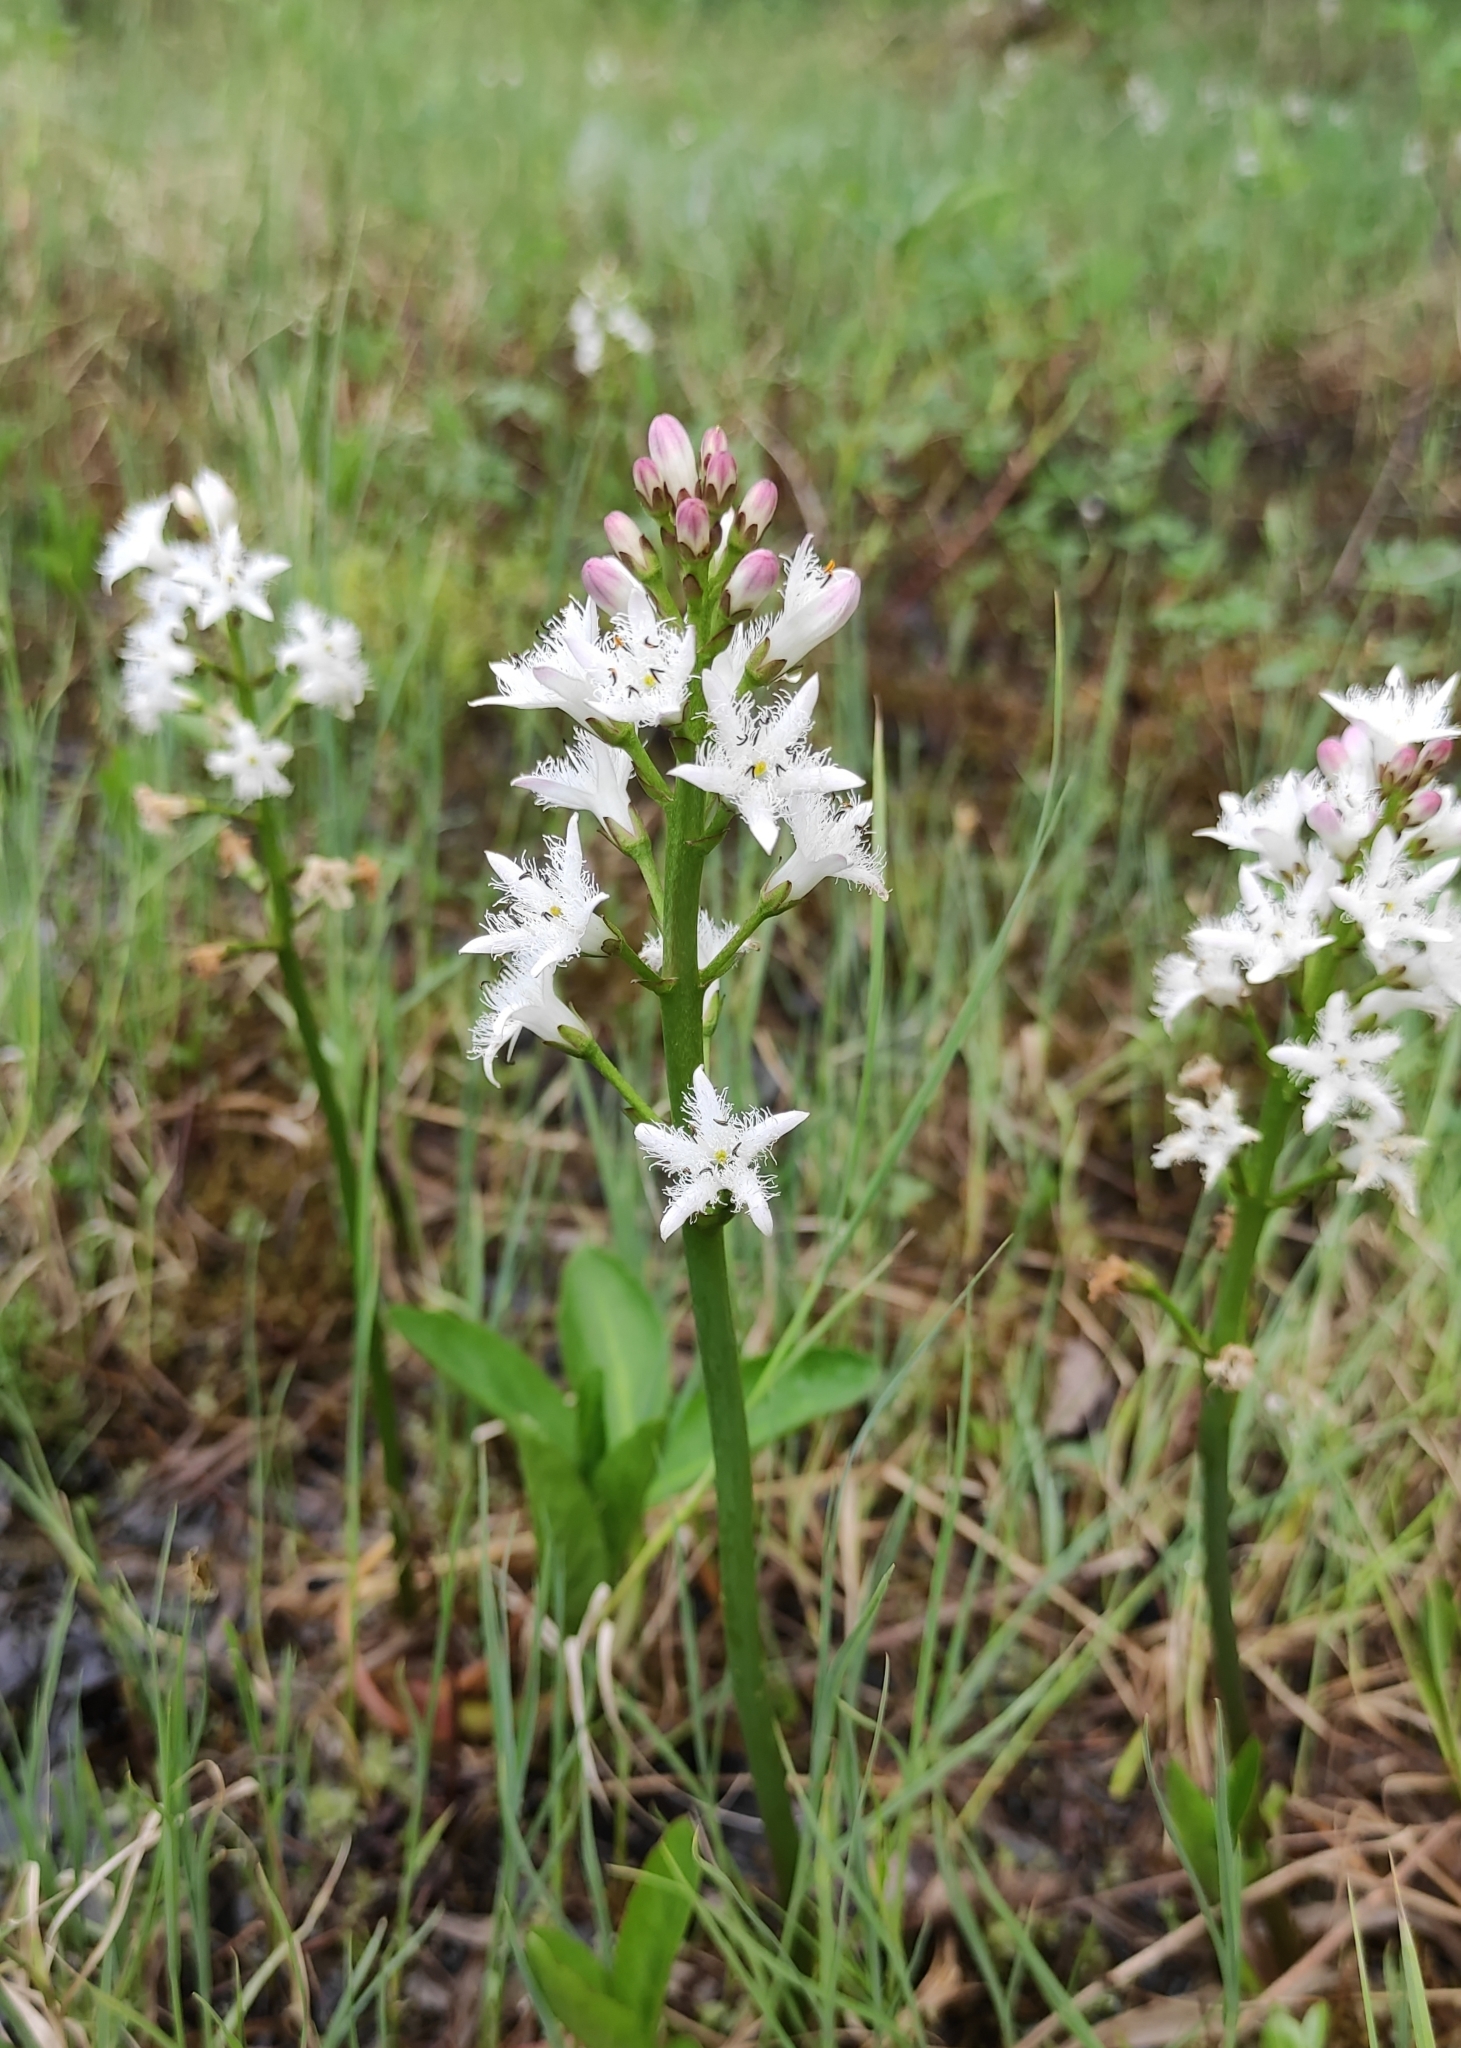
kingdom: Plantae
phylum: Tracheophyta
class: Magnoliopsida
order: Asterales
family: Menyanthaceae
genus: Menyanthes
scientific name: Menyanthes trifoliata
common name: Bogbean
